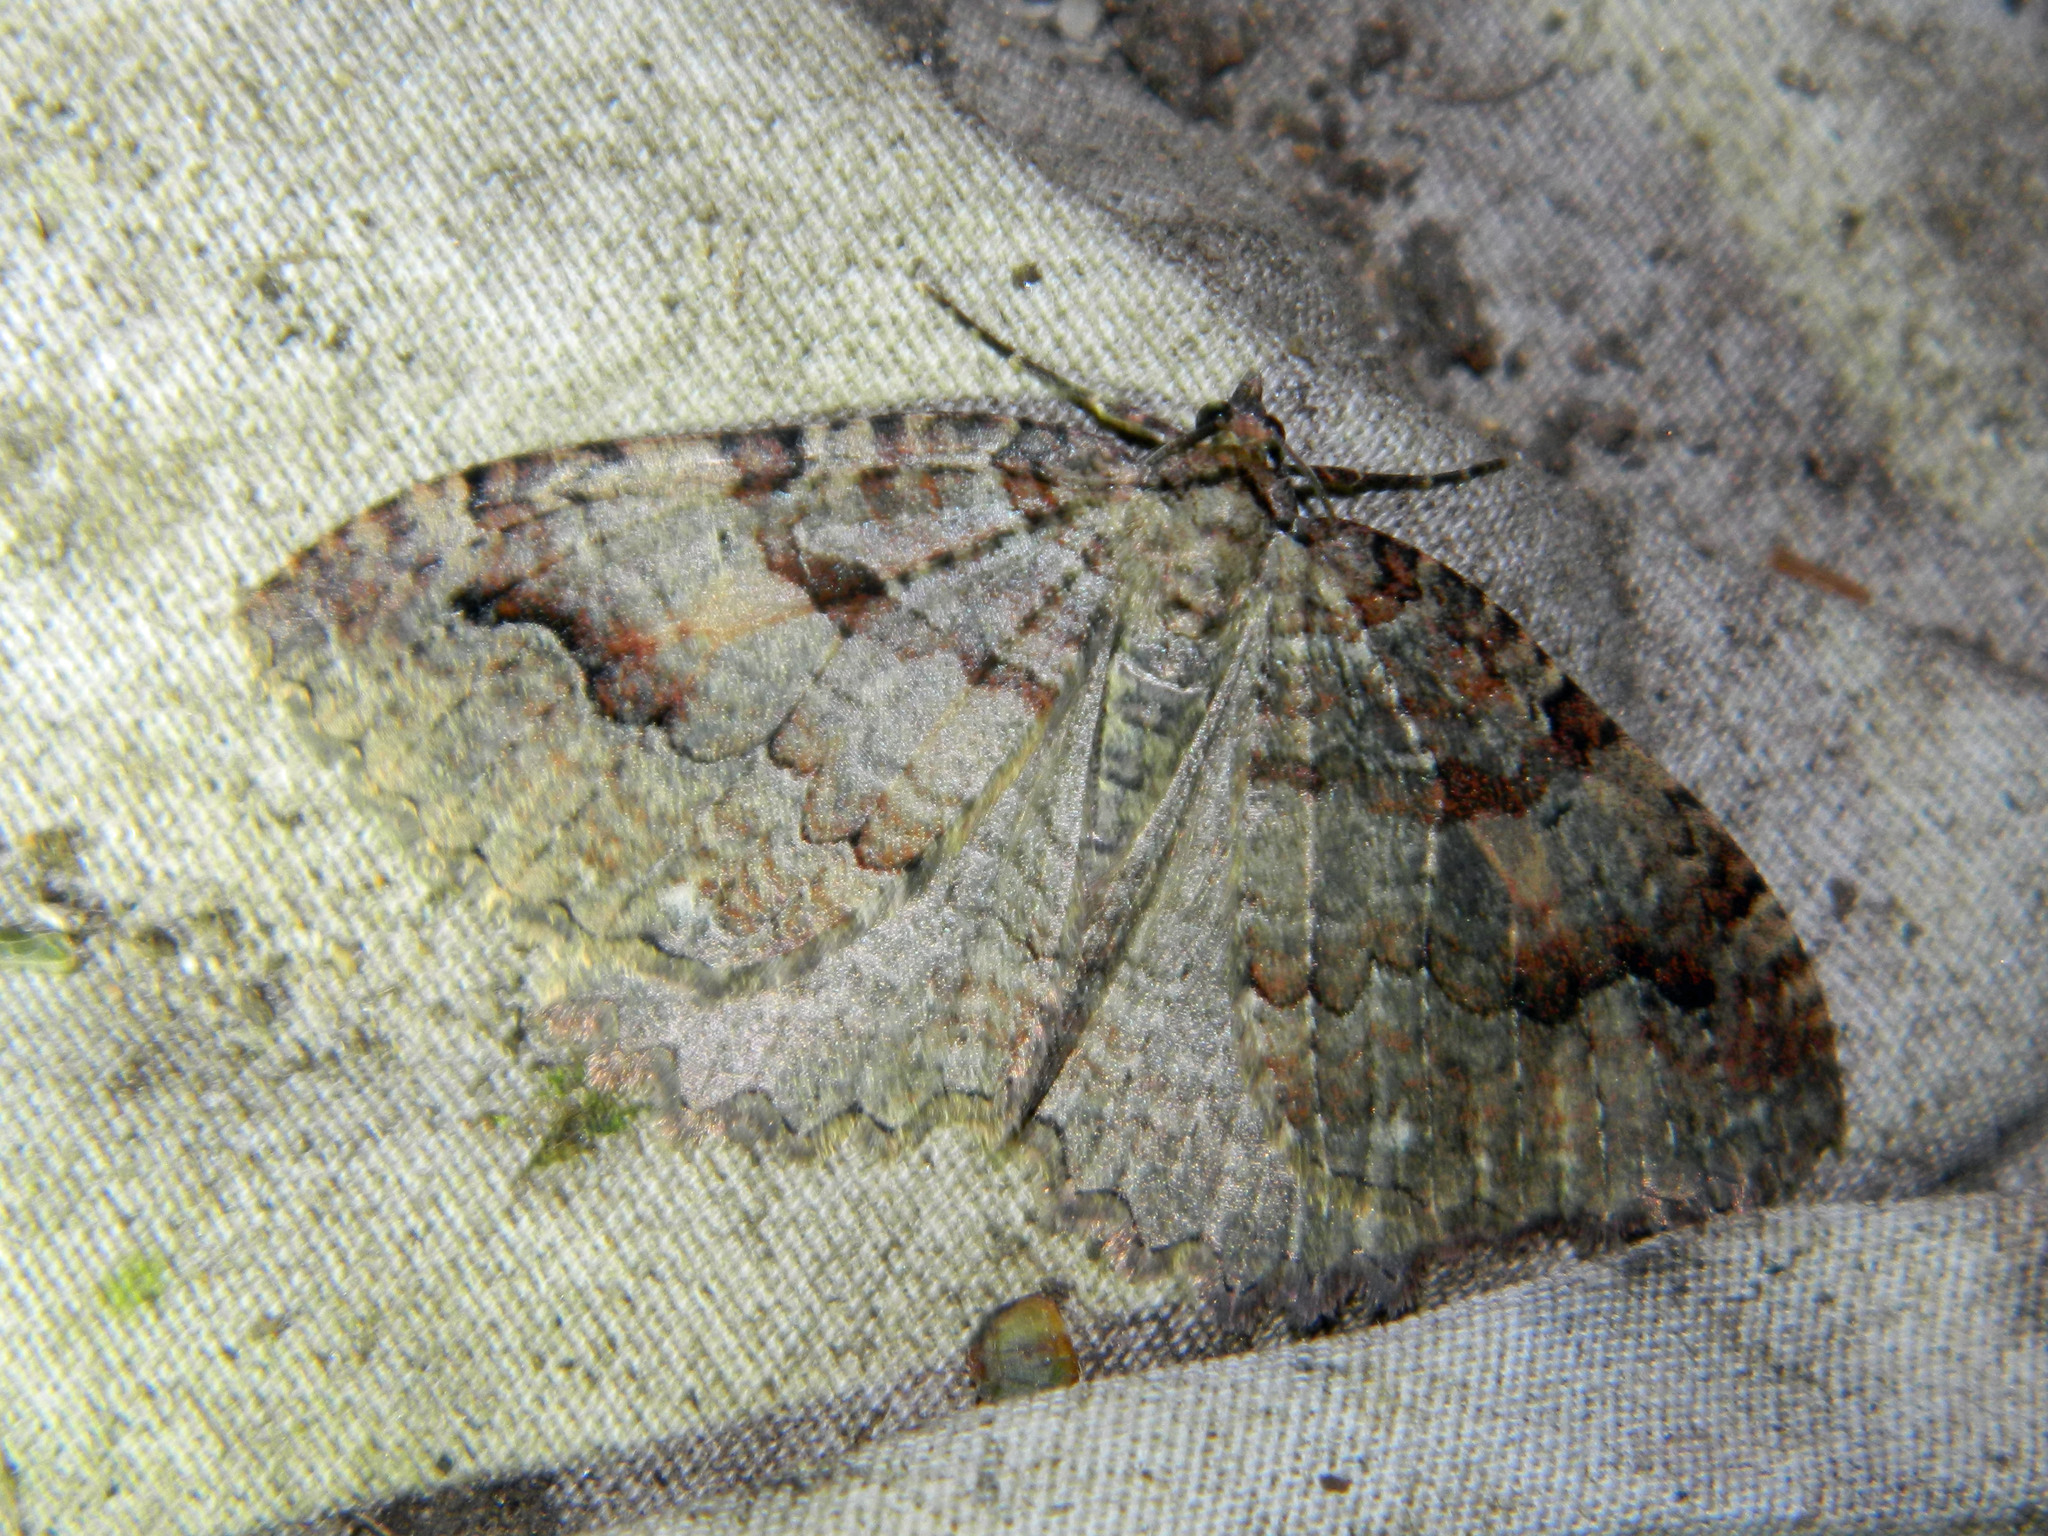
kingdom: Animalia
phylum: Arthropoda
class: Insecta
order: Lepidoptera
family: Geometridae
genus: Triphosa
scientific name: Triphosa haesitata
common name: Tissue moth
